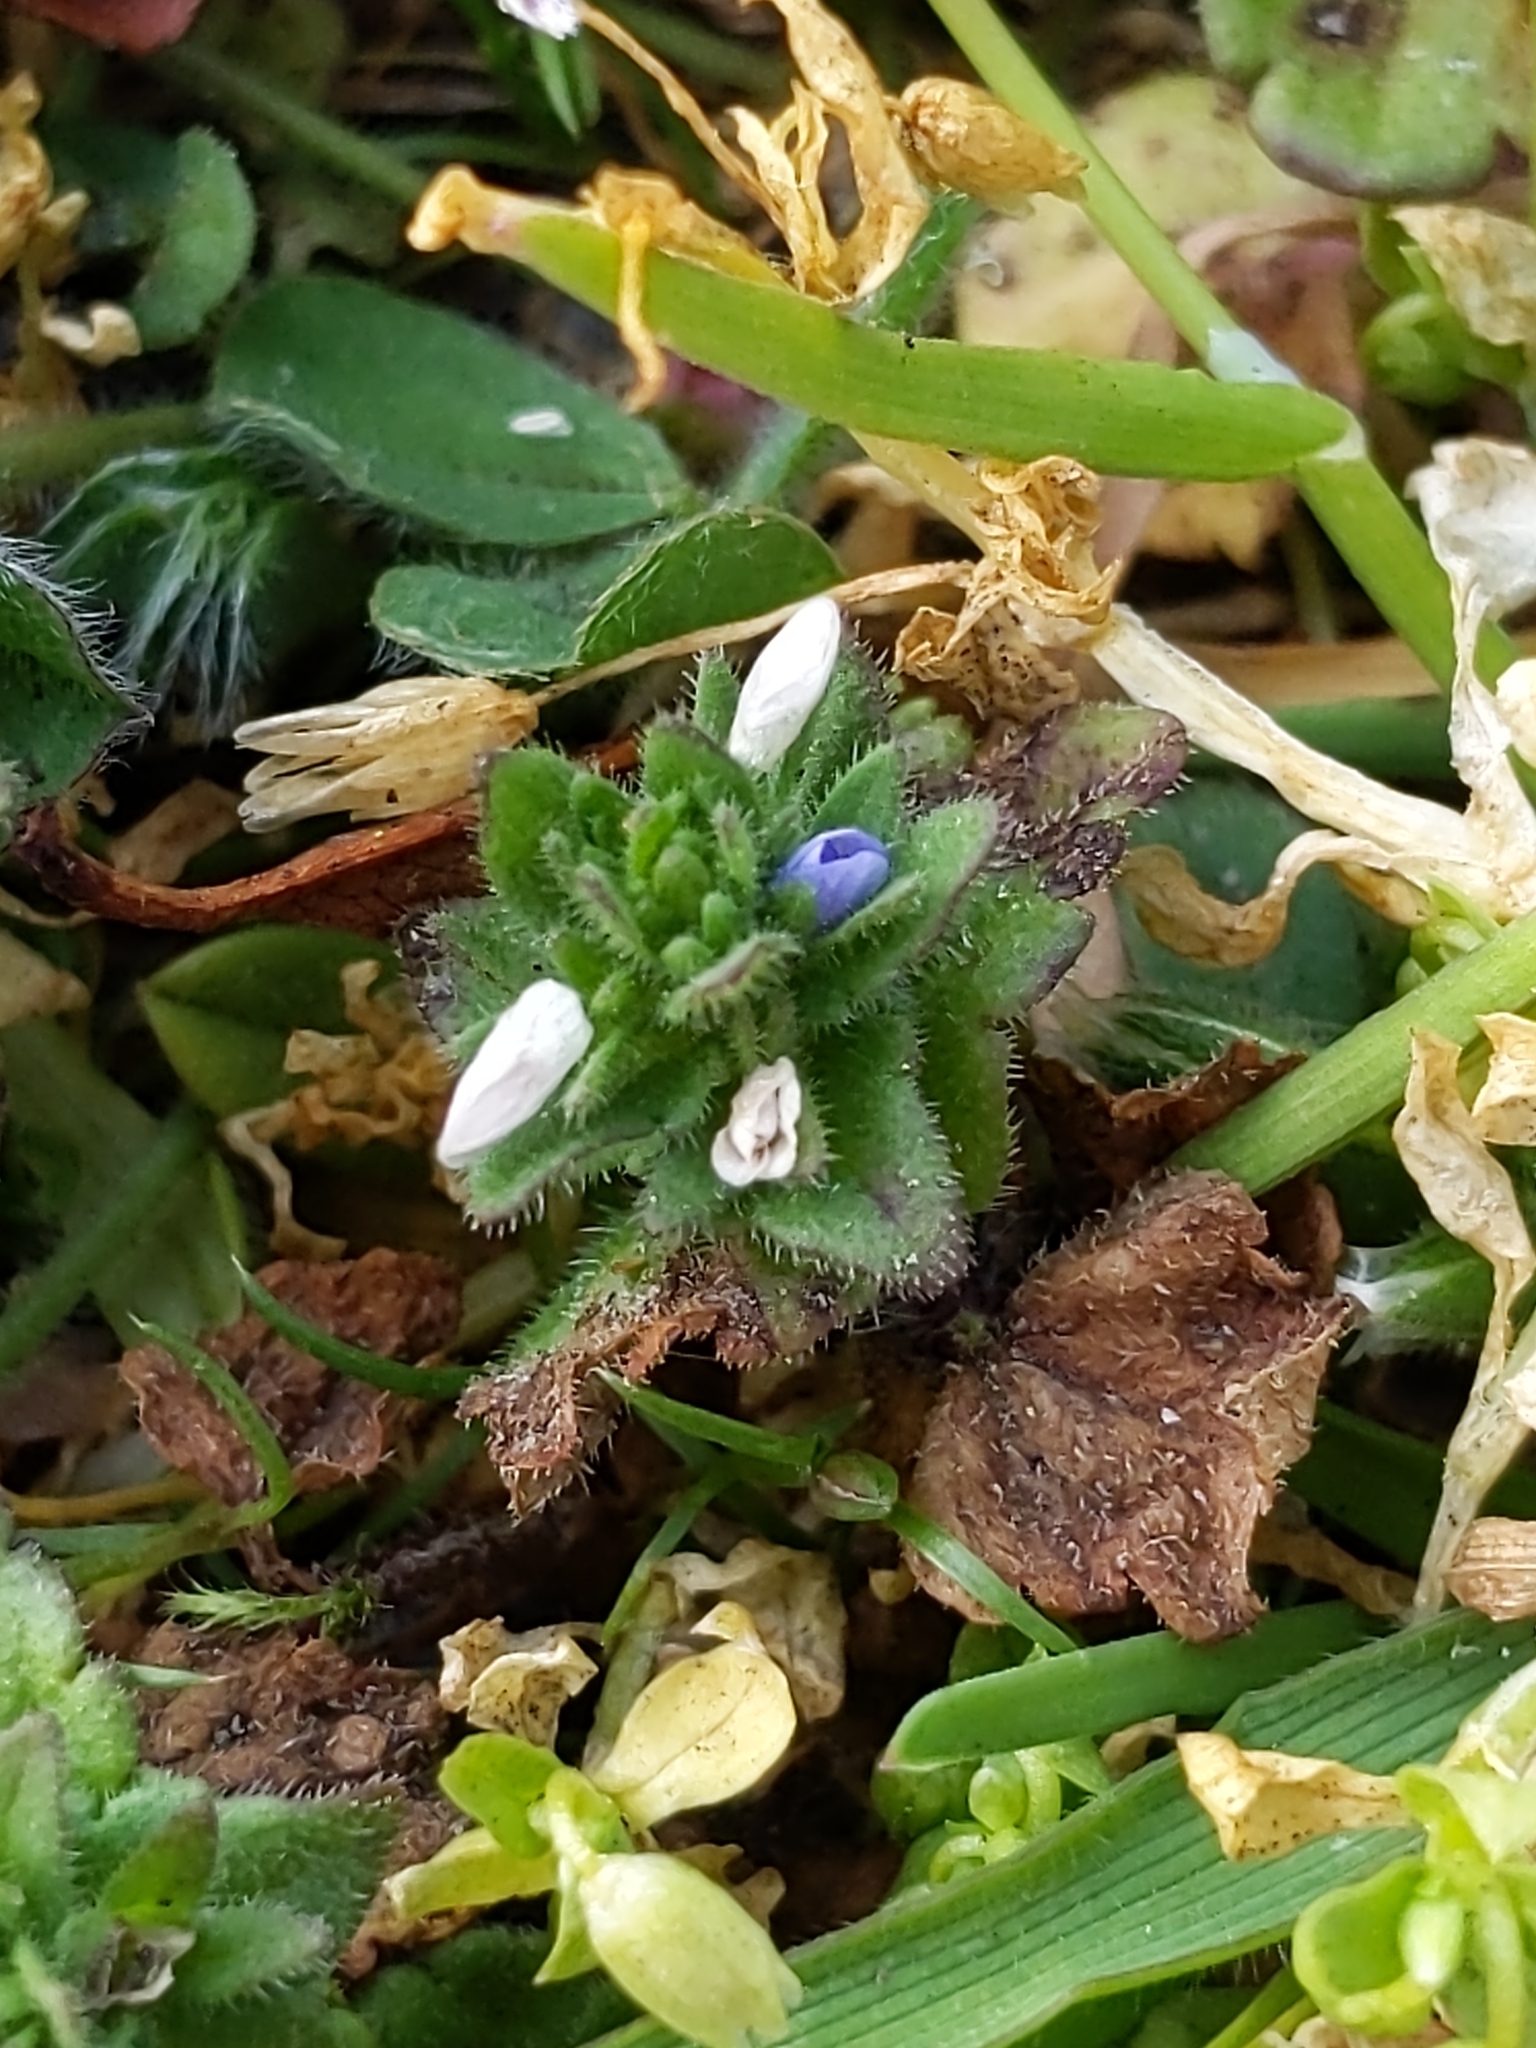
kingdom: Plantae
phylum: Tracheophyta
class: Magnoliopsida
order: Lamiales
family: Plantaginaceae
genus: Veronica
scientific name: Veronica arvensis
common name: Corn speedwell
